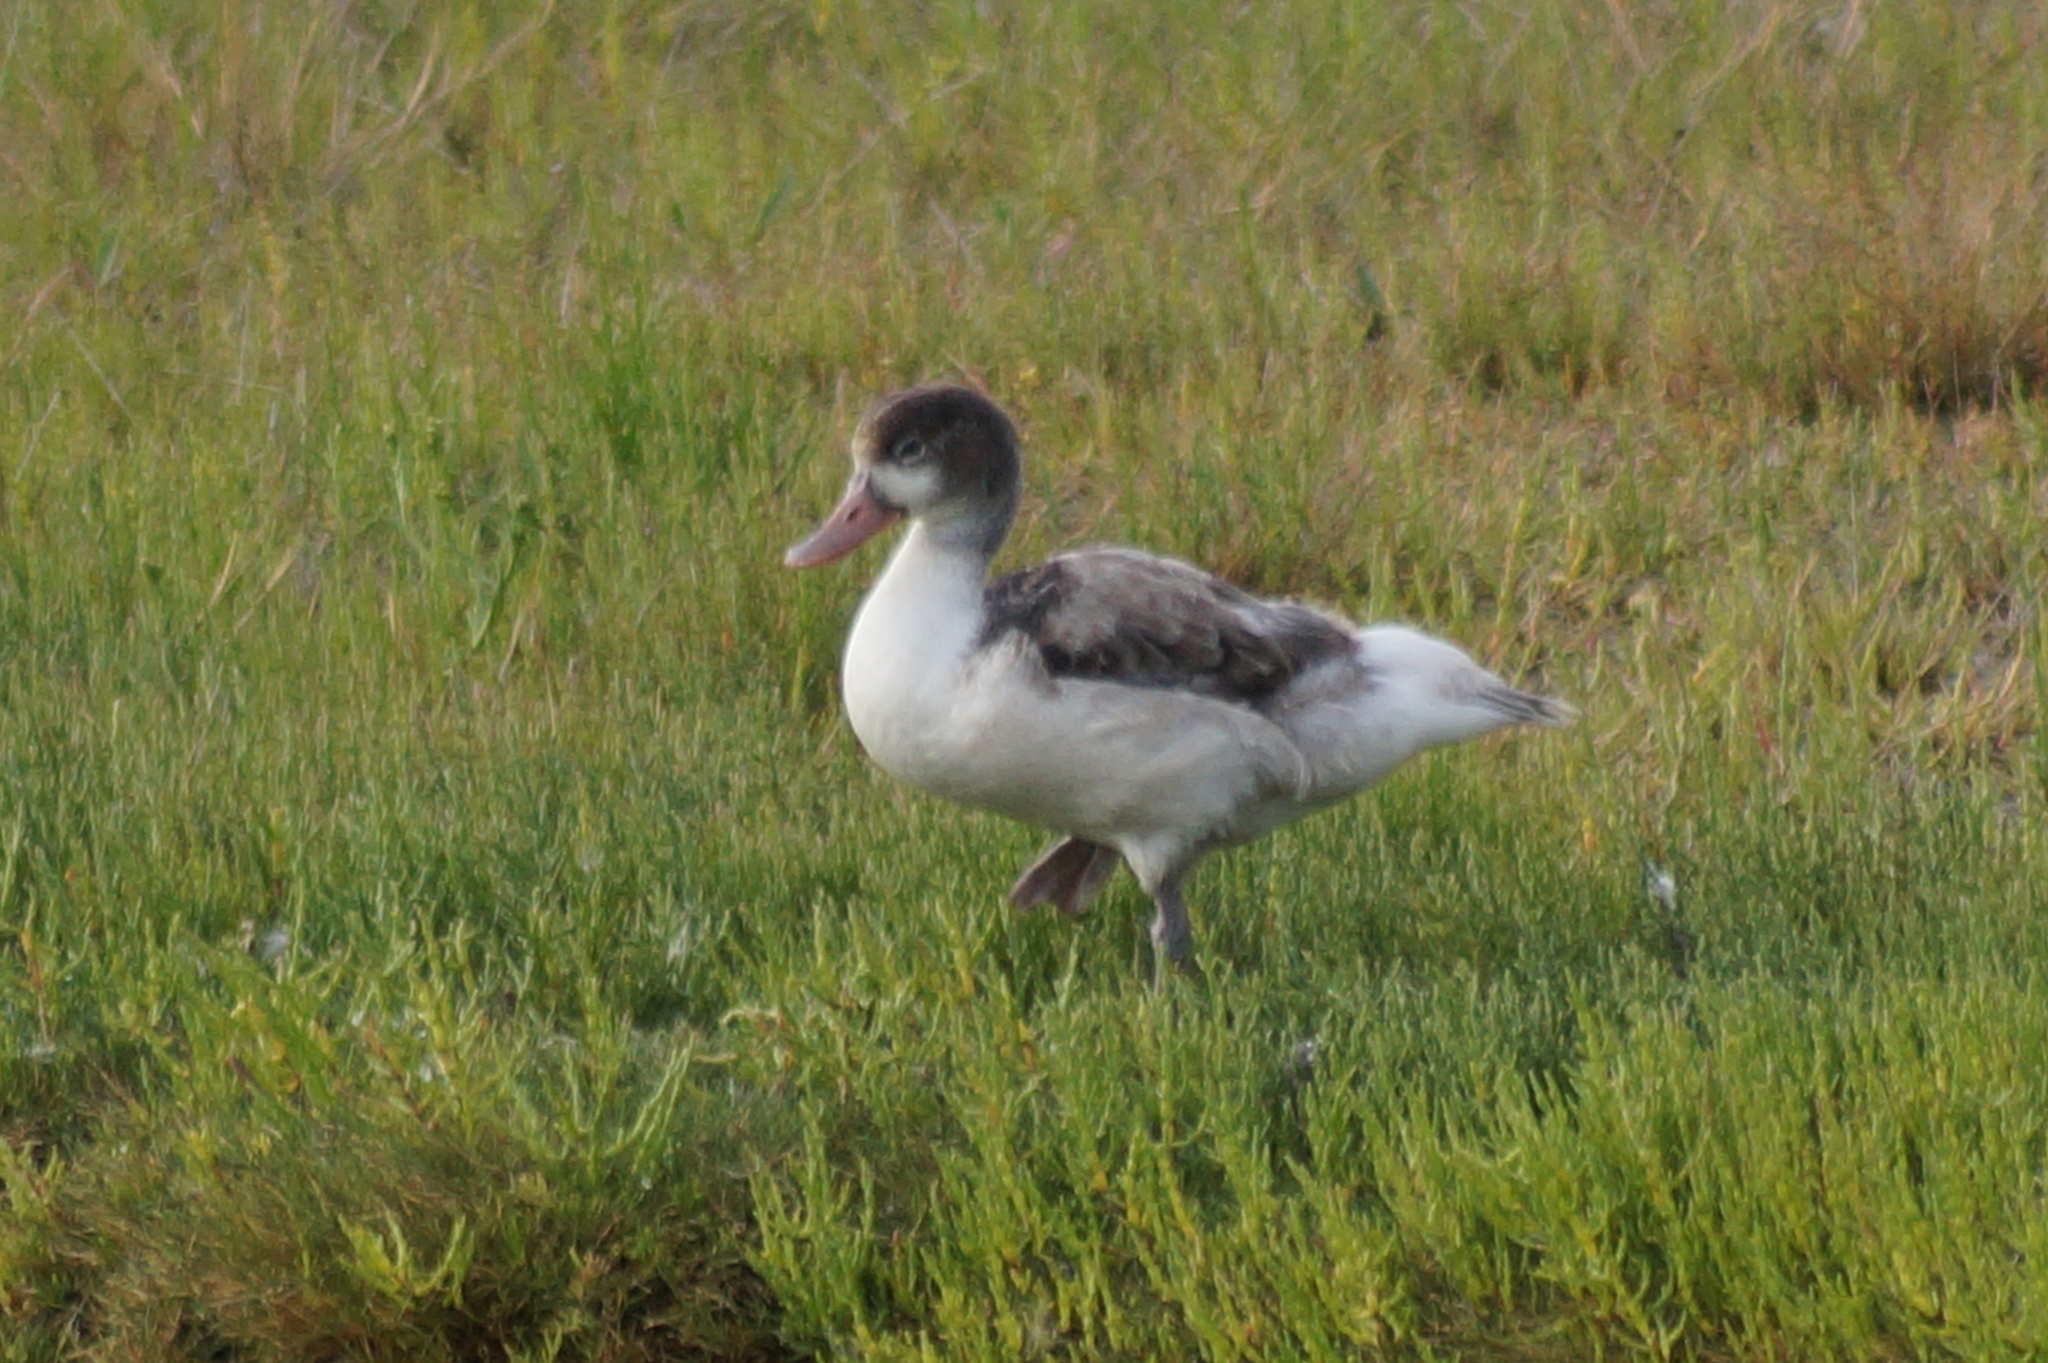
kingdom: Animalia
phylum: Chordata
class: Aves
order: Anseriformes
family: Anatidae
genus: Tadorna
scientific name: Tadorna tadorna
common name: Common shelduck
